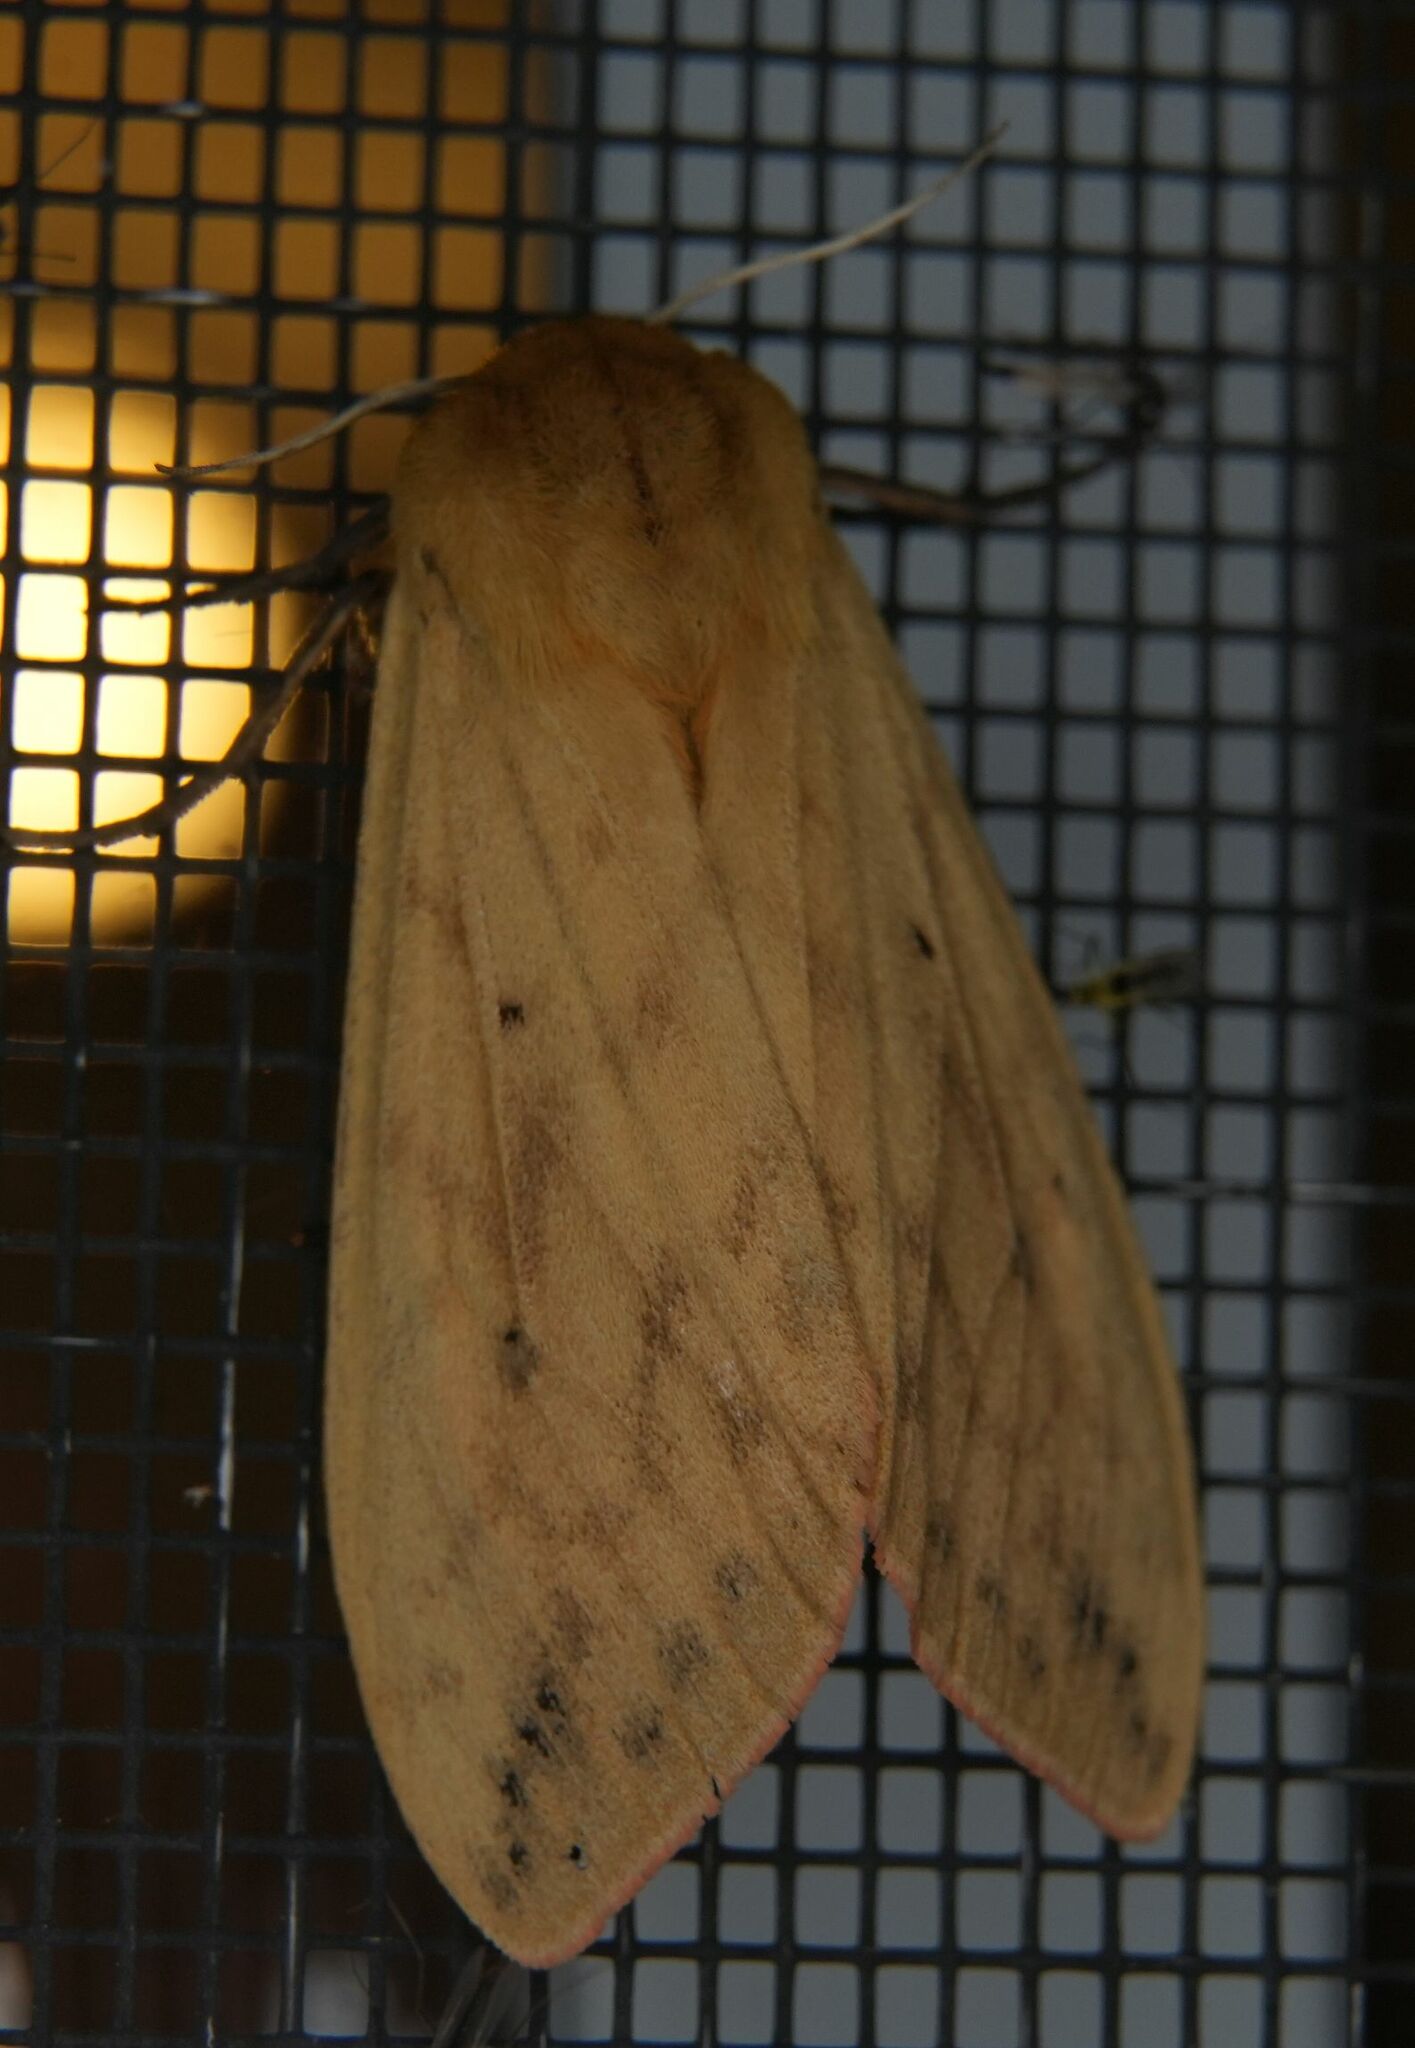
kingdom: Animalia
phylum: Arthropoda
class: Insecta
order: Lepidoptera
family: Erebidae
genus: Pyrrharctia
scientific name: Pyrrharctia isabella
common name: Isabella tiger moth
